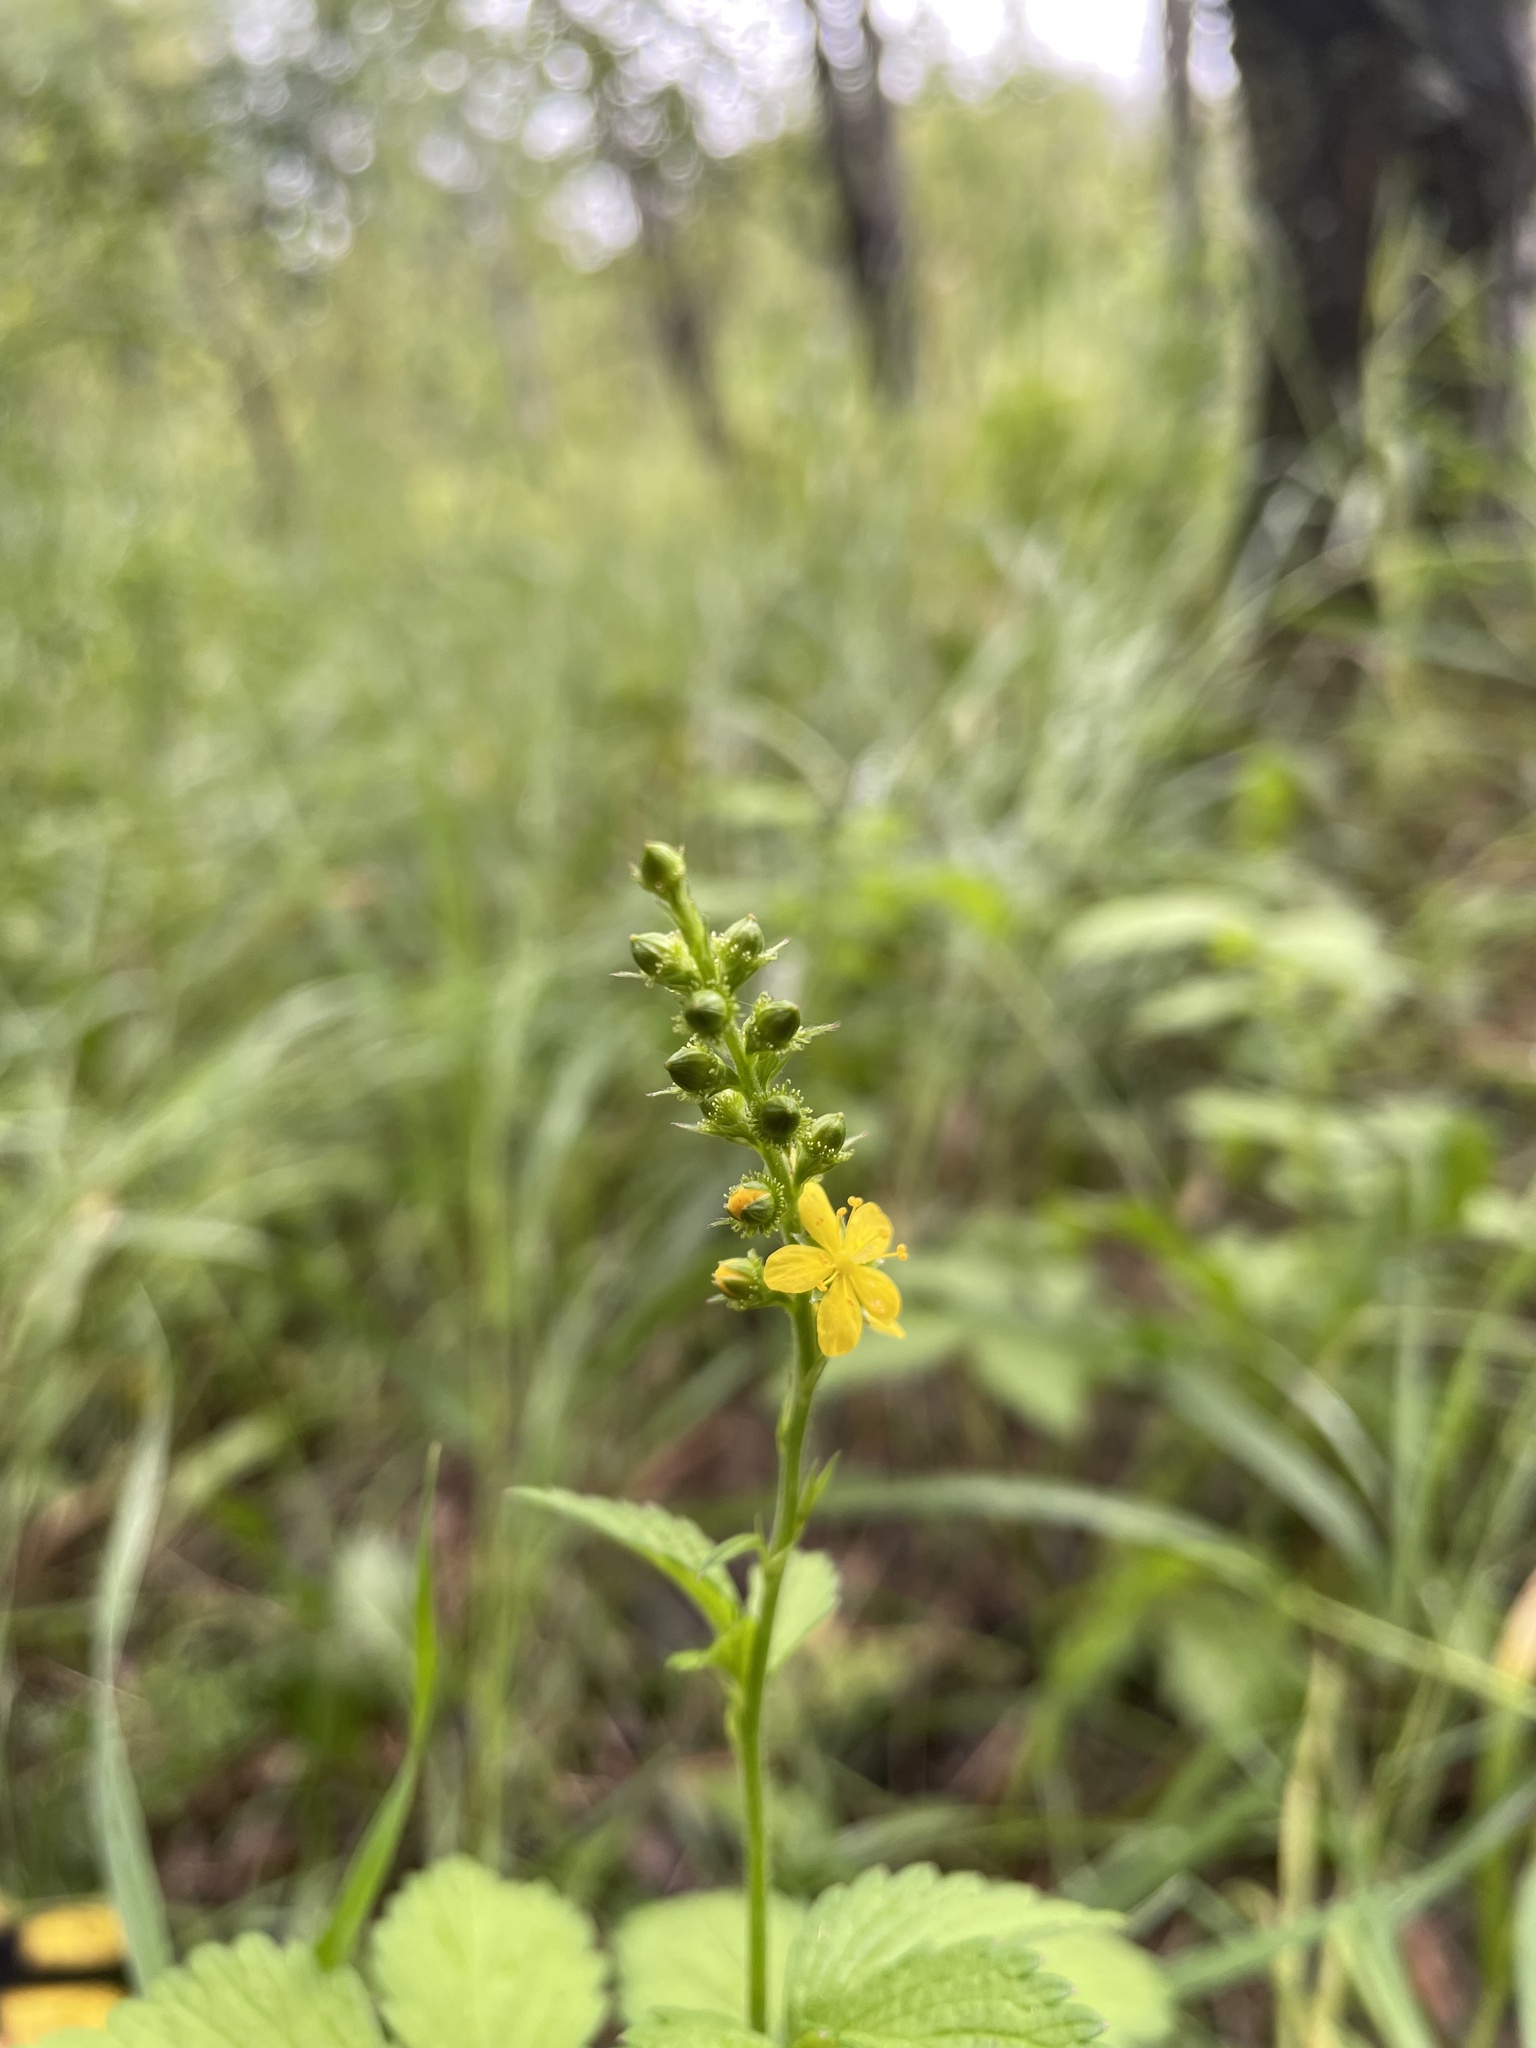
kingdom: Plantae
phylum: Tracheophyta
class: Magnoliopsida
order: Rosales
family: Rosaceae
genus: Agrimonia
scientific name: Agrimonia striata
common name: Britton's agrimony
